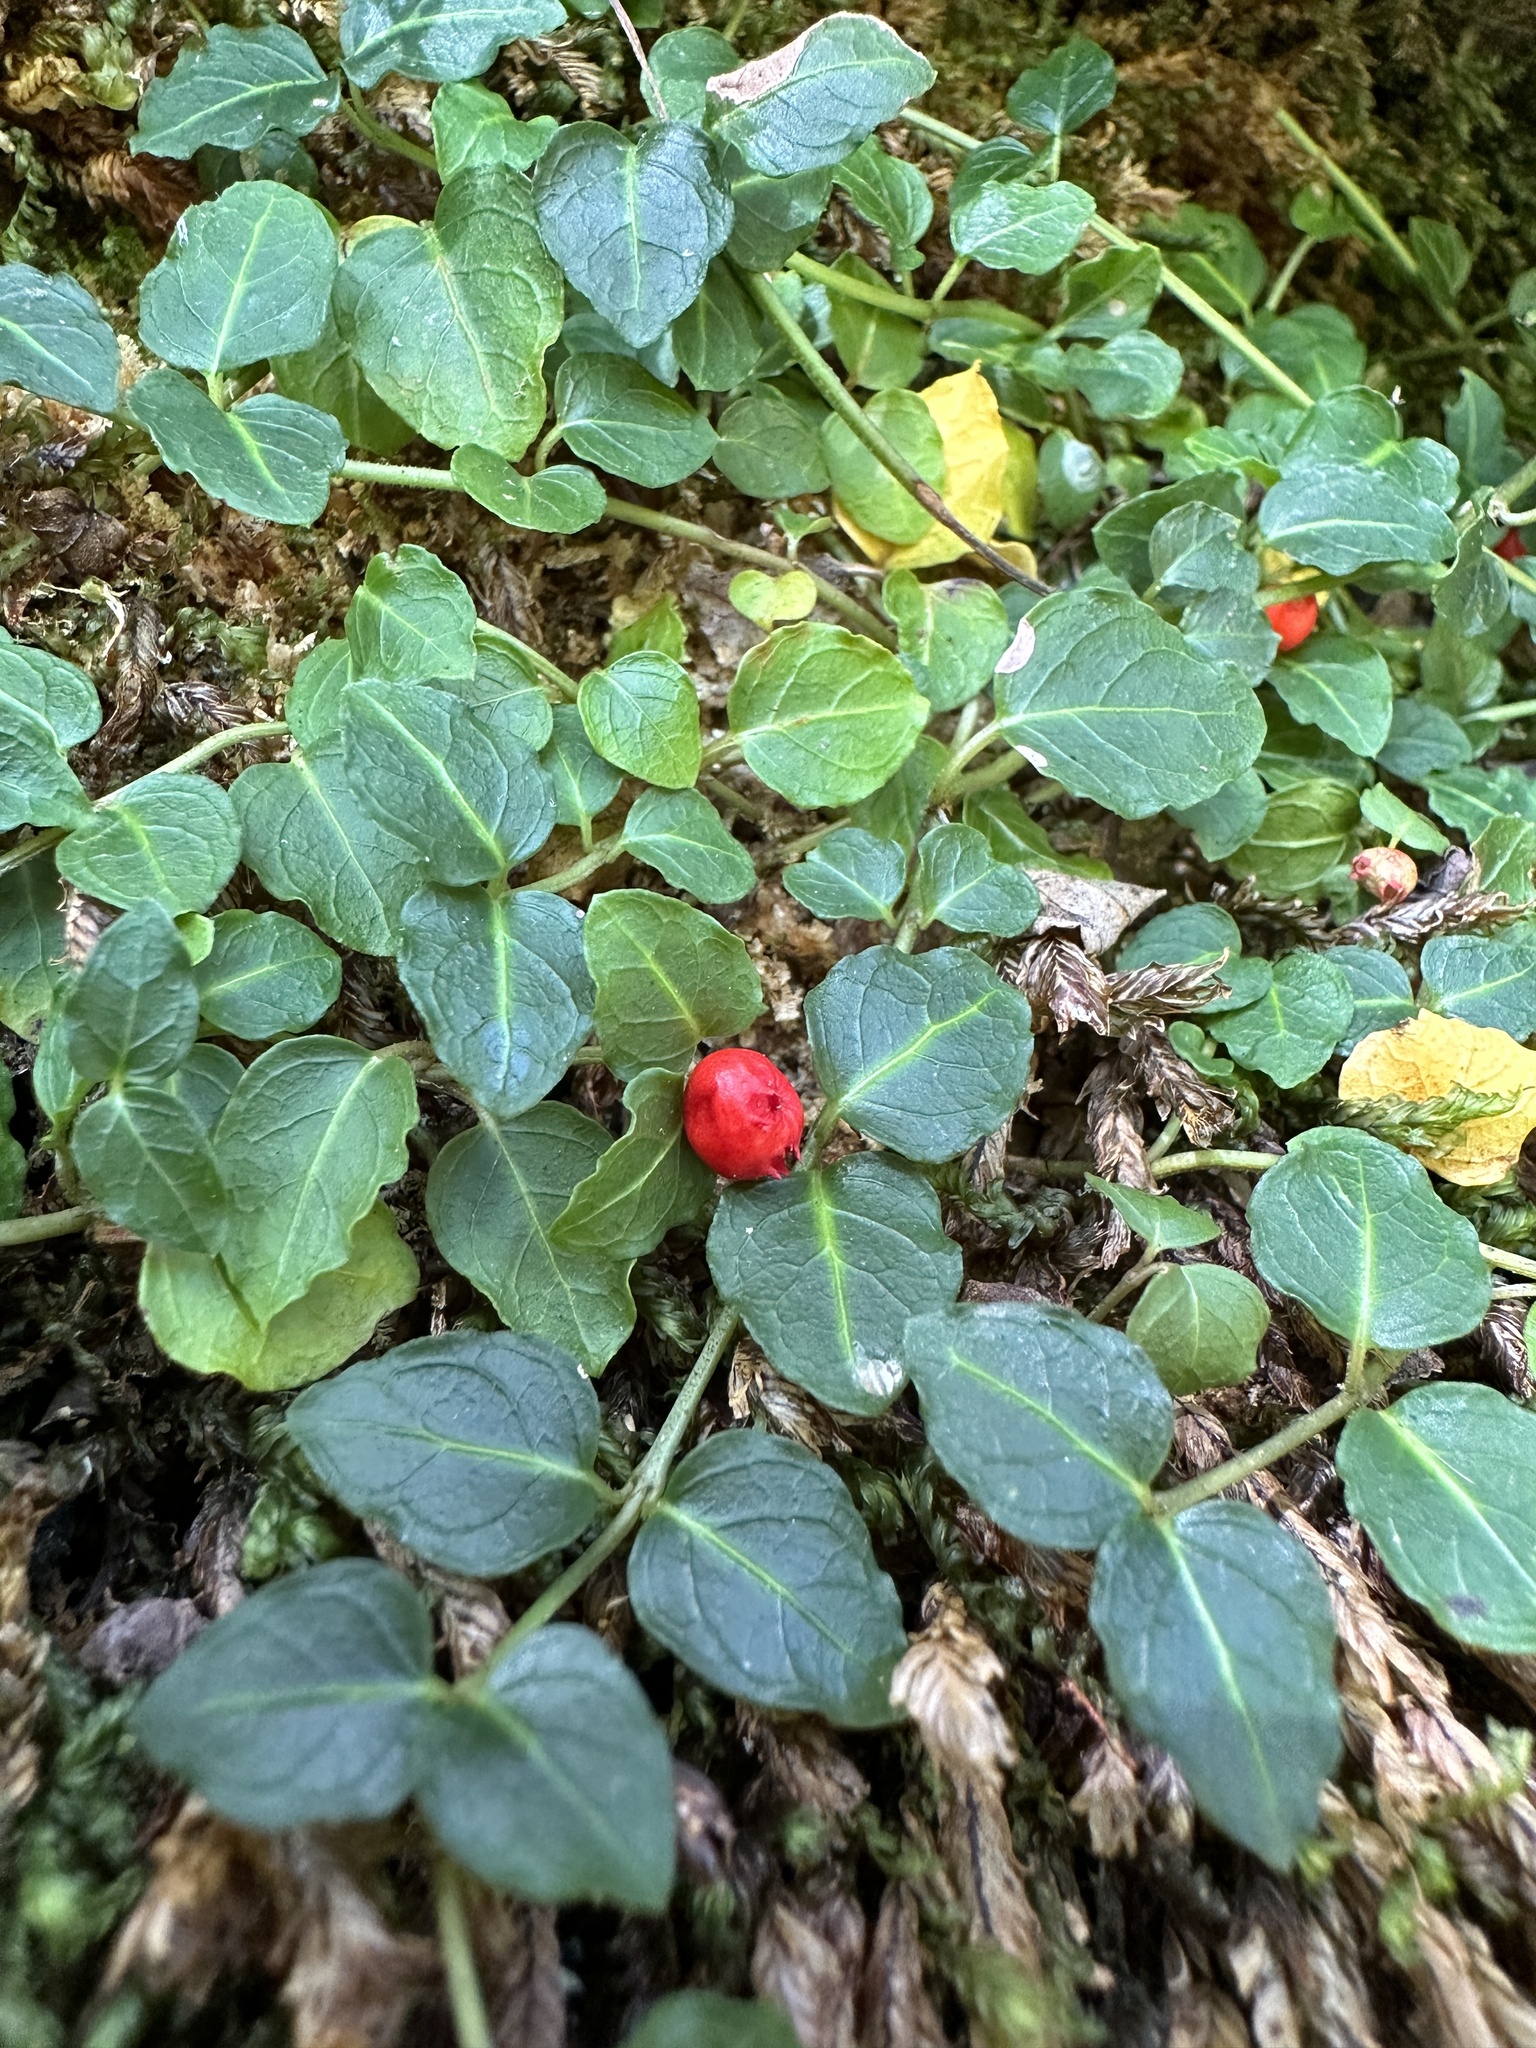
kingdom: Plantae
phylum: Tracheophyta
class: Magnoliopsida
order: Gentianales
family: Rubiaceae
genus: Mitchella
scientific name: Mitchella repens
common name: Partridge-berry
